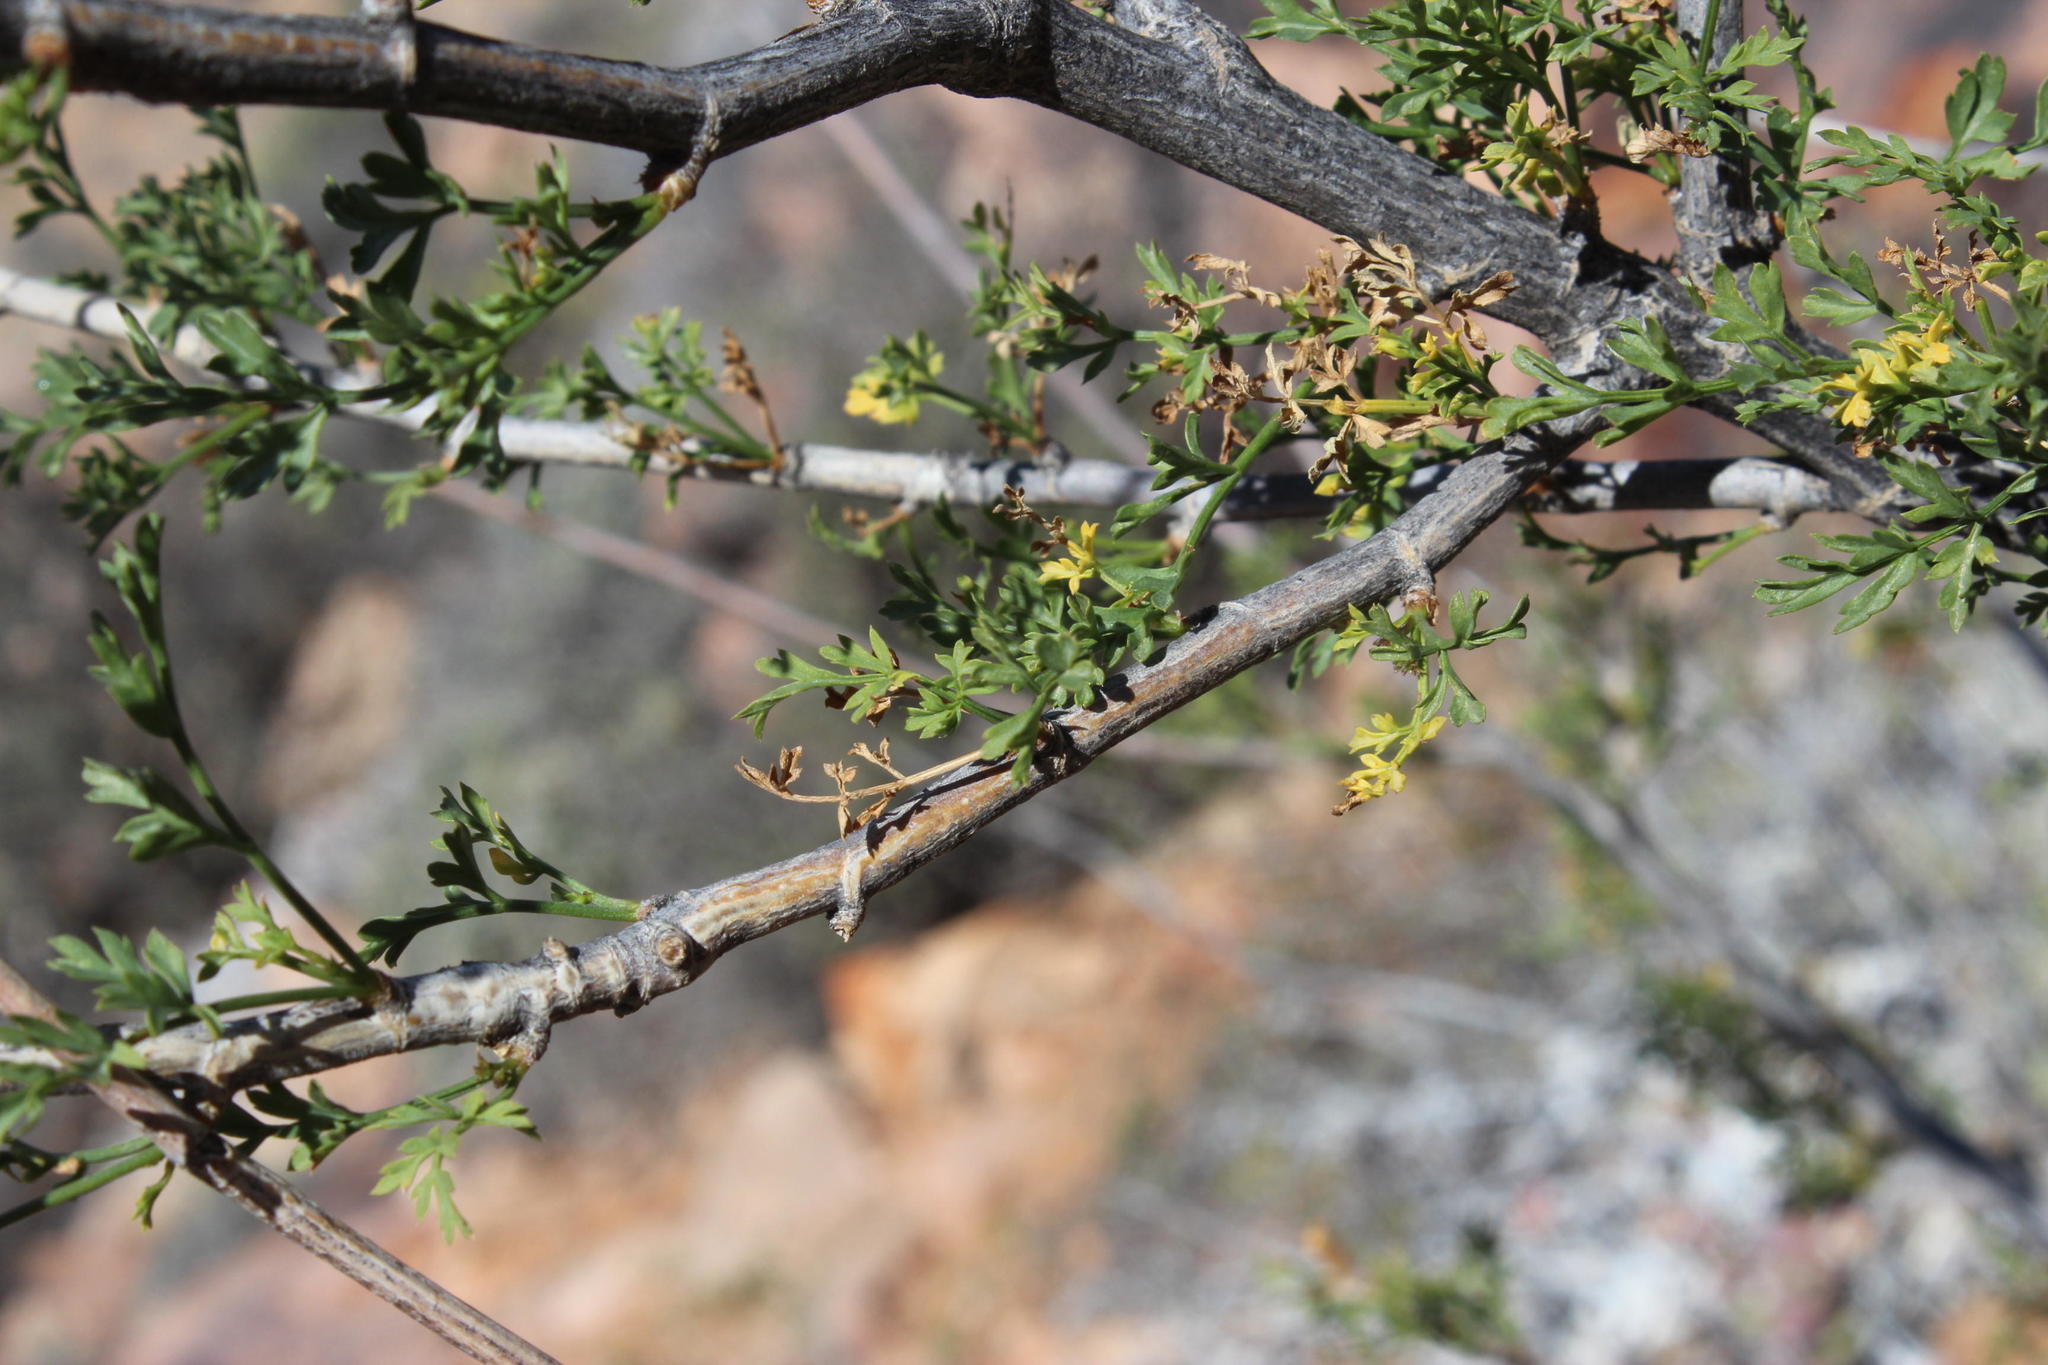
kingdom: Plantae
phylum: Tracheophyta
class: Magnoliopsida
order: Apiales
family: Apiaceae
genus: Anginon
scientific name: Anginon verticillatum
